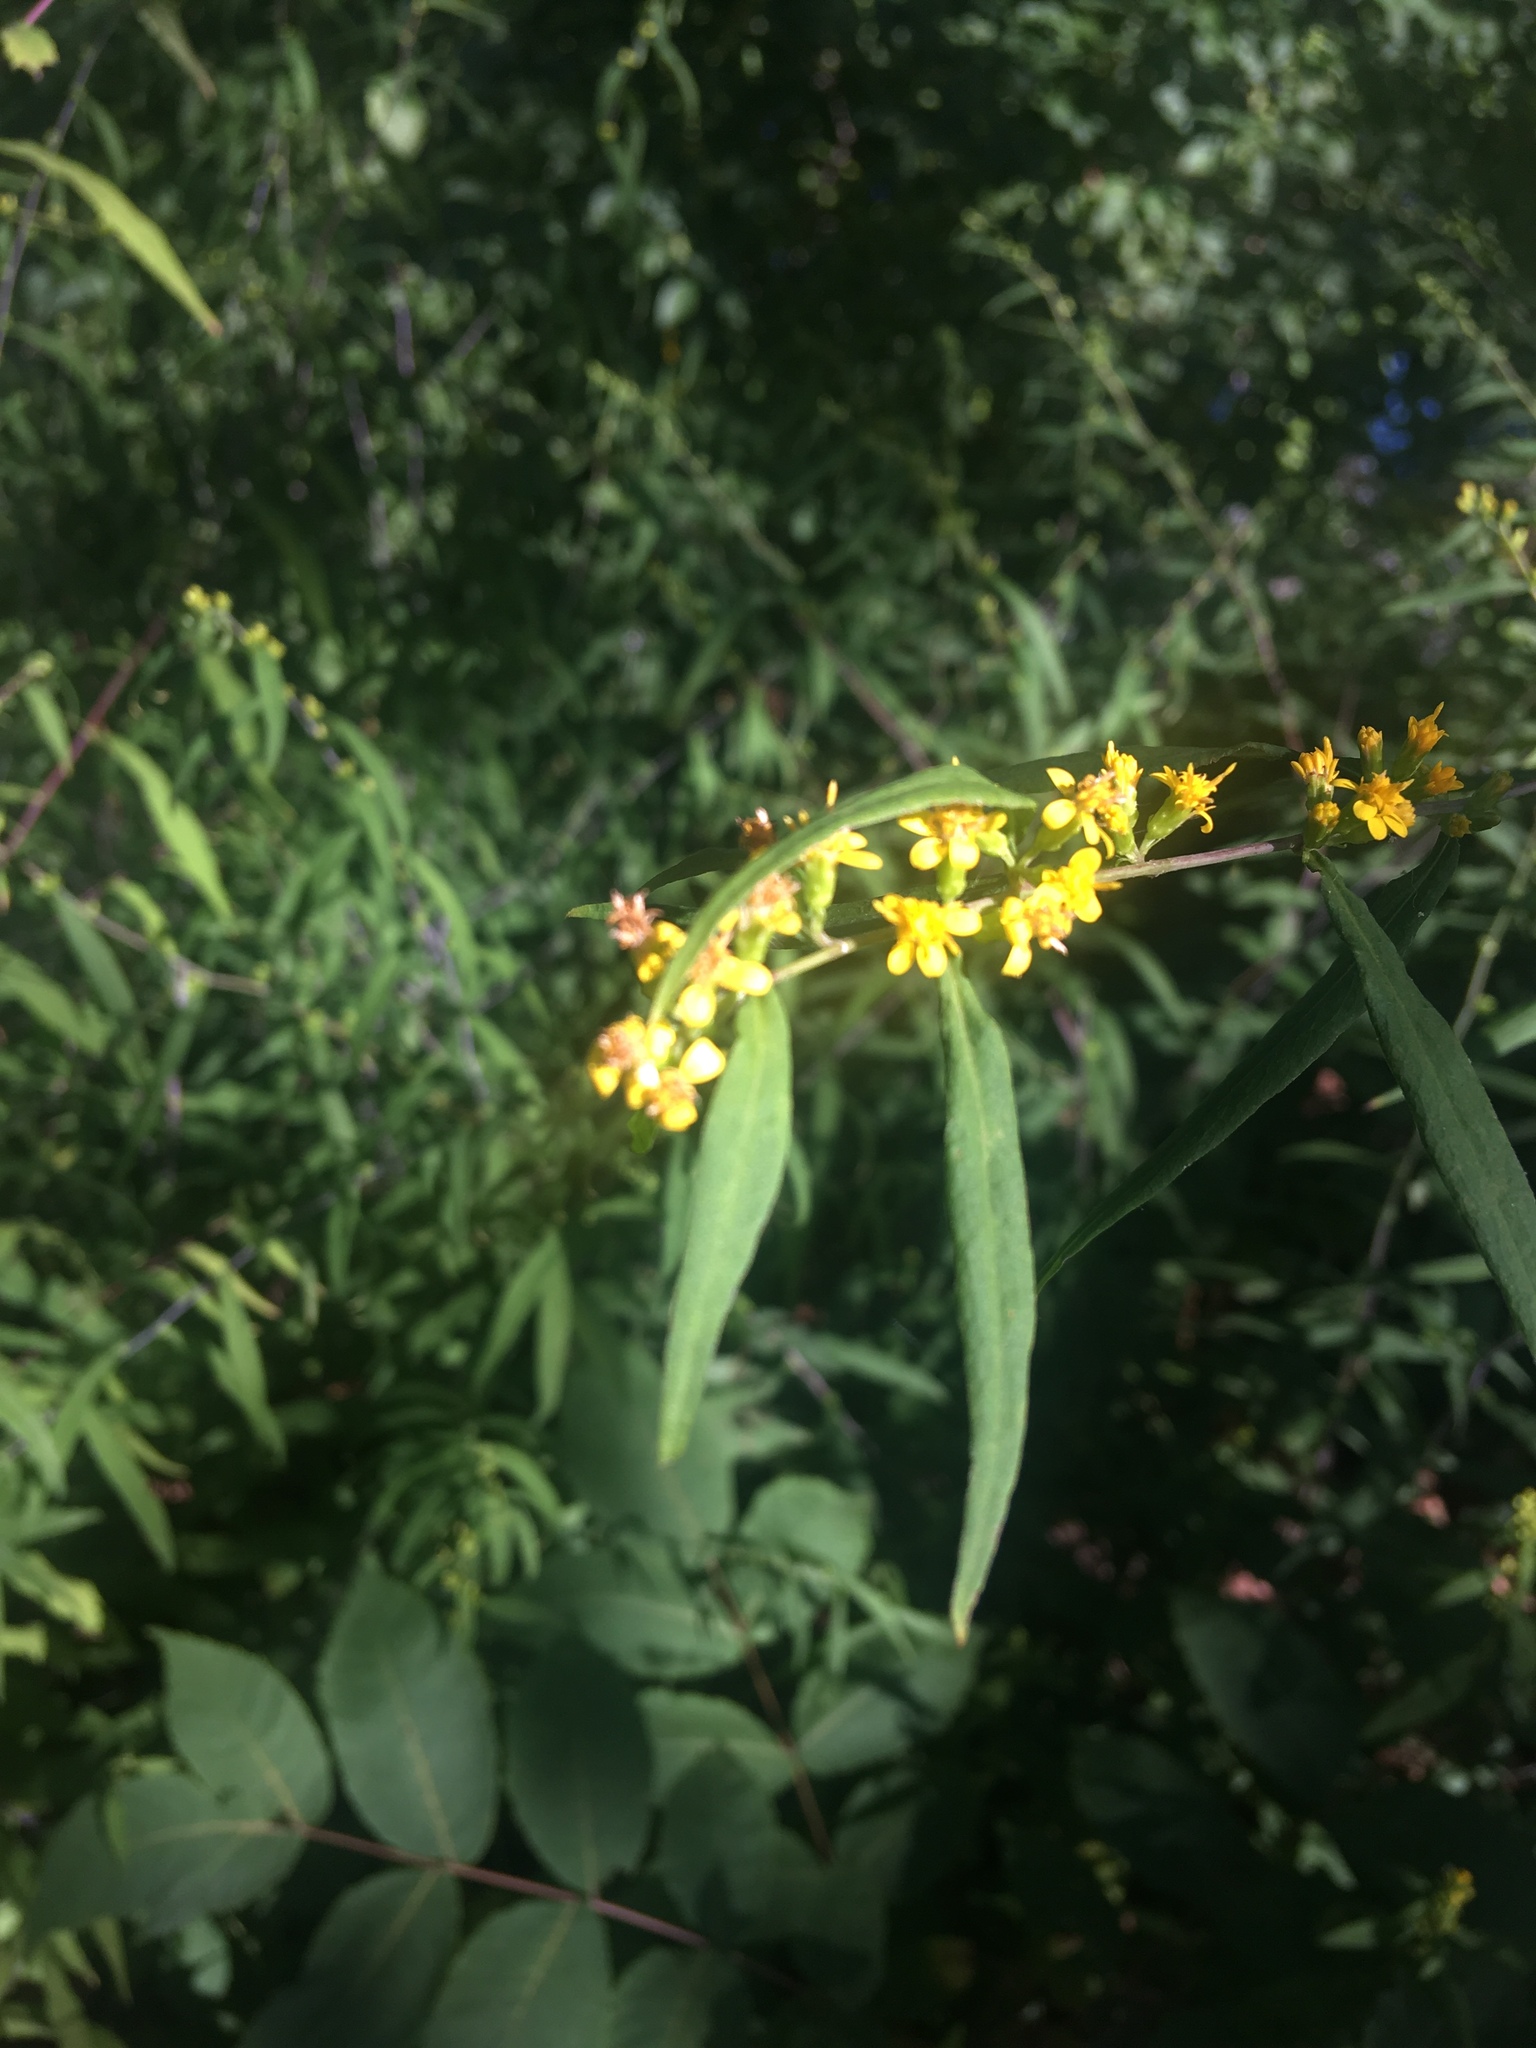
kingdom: Plantae
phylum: Tracheophyta
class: Magnoliopsida
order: Asterales
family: Asteraceae
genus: Solidago
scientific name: Solidago caesia
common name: Woodland goldenrod
